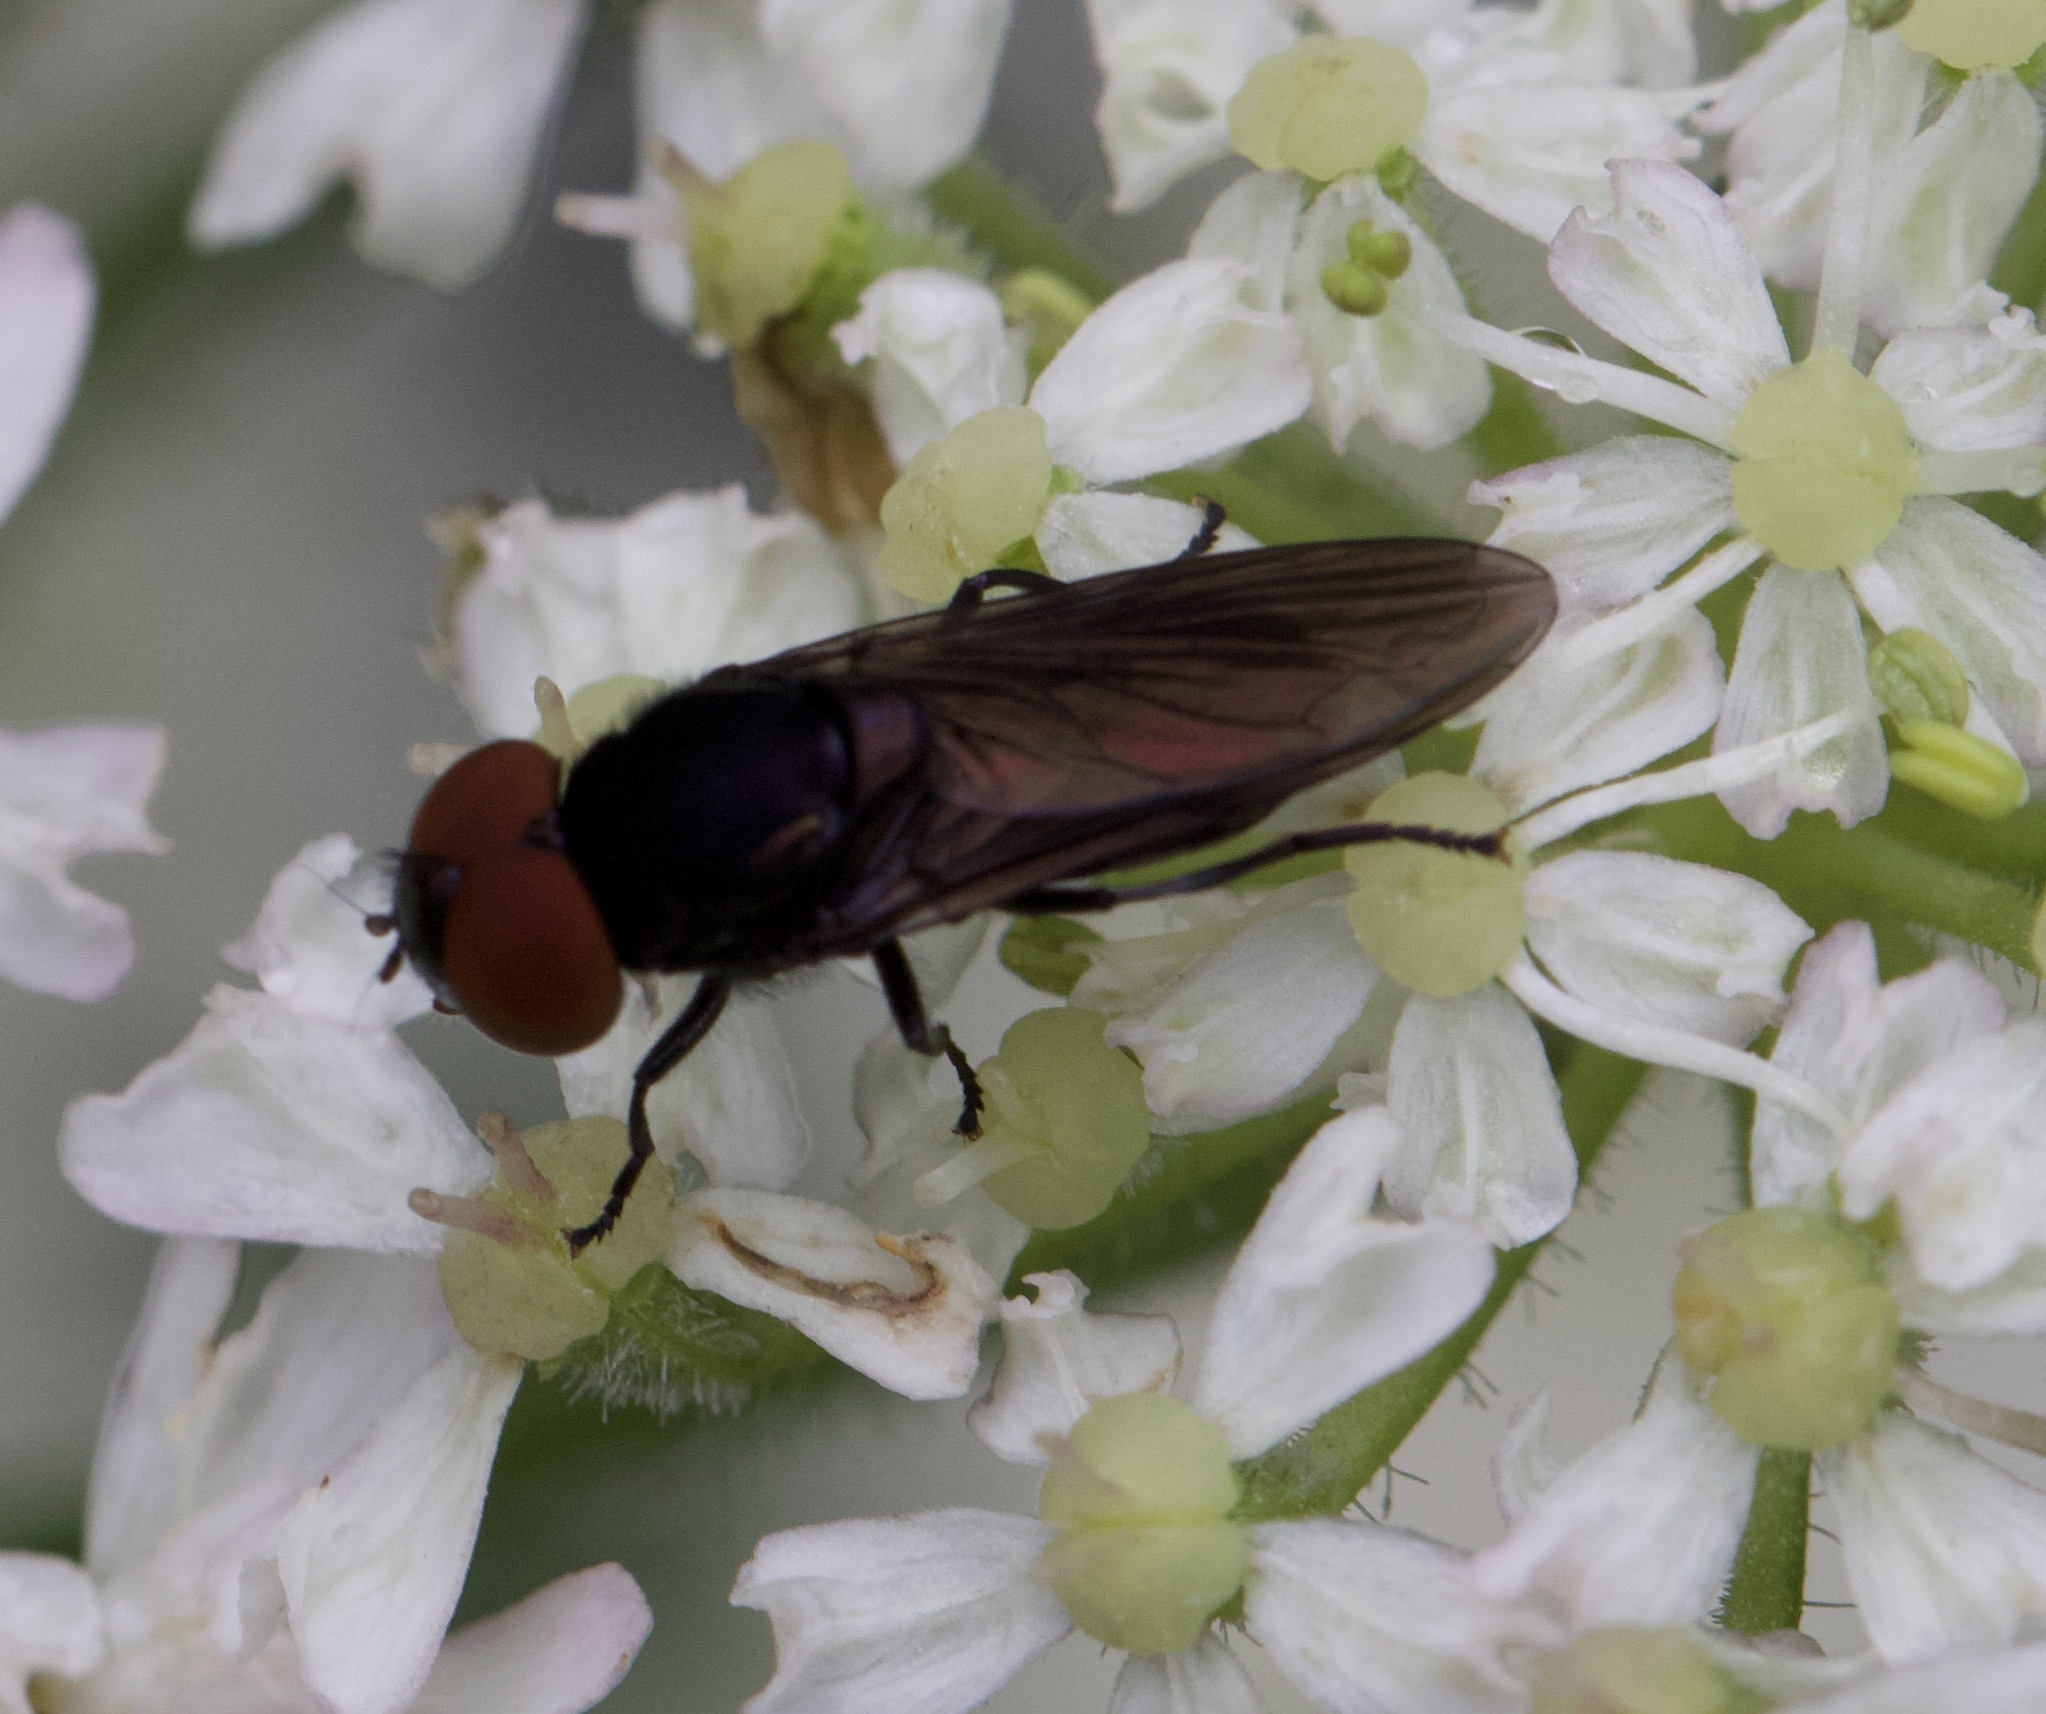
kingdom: Animalia
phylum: Arthropoda
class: Insecta
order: Diptera
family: Syrphidae
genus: Chrysogaster
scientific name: Chrysogaster solstitialis
